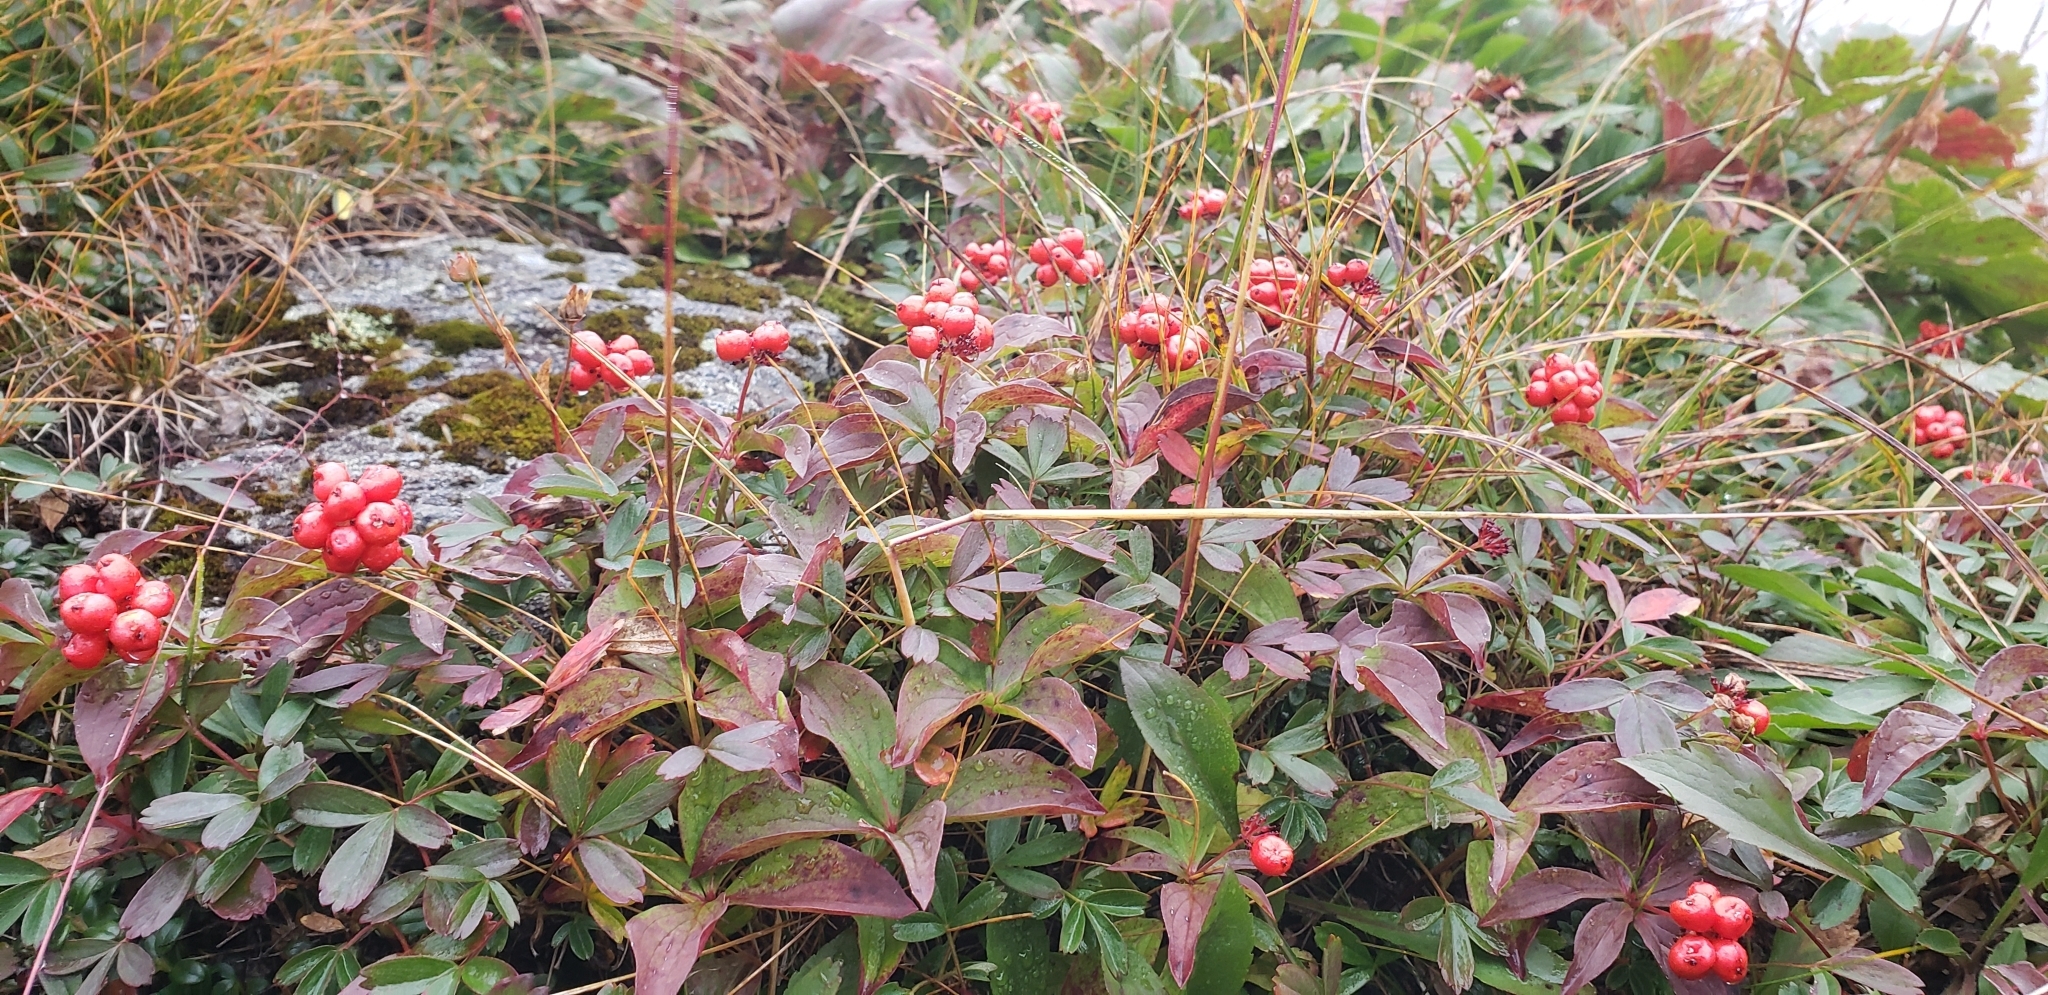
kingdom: Plantae
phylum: Tracheophyta
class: Magnoliopsida
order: Cornales
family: Cornaceae
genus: Cornus
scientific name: Cornus canadensis
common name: Creeping dogwood
